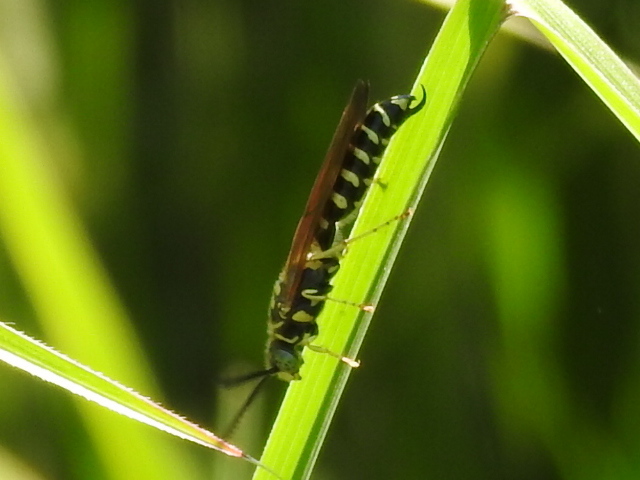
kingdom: Animalia
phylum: Arthropoda
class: Insecta
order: Hymenoptera
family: Tiphiidae
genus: Myzinum
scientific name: Myzinum quinquecinctum
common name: Five-banded thynnid wasp
